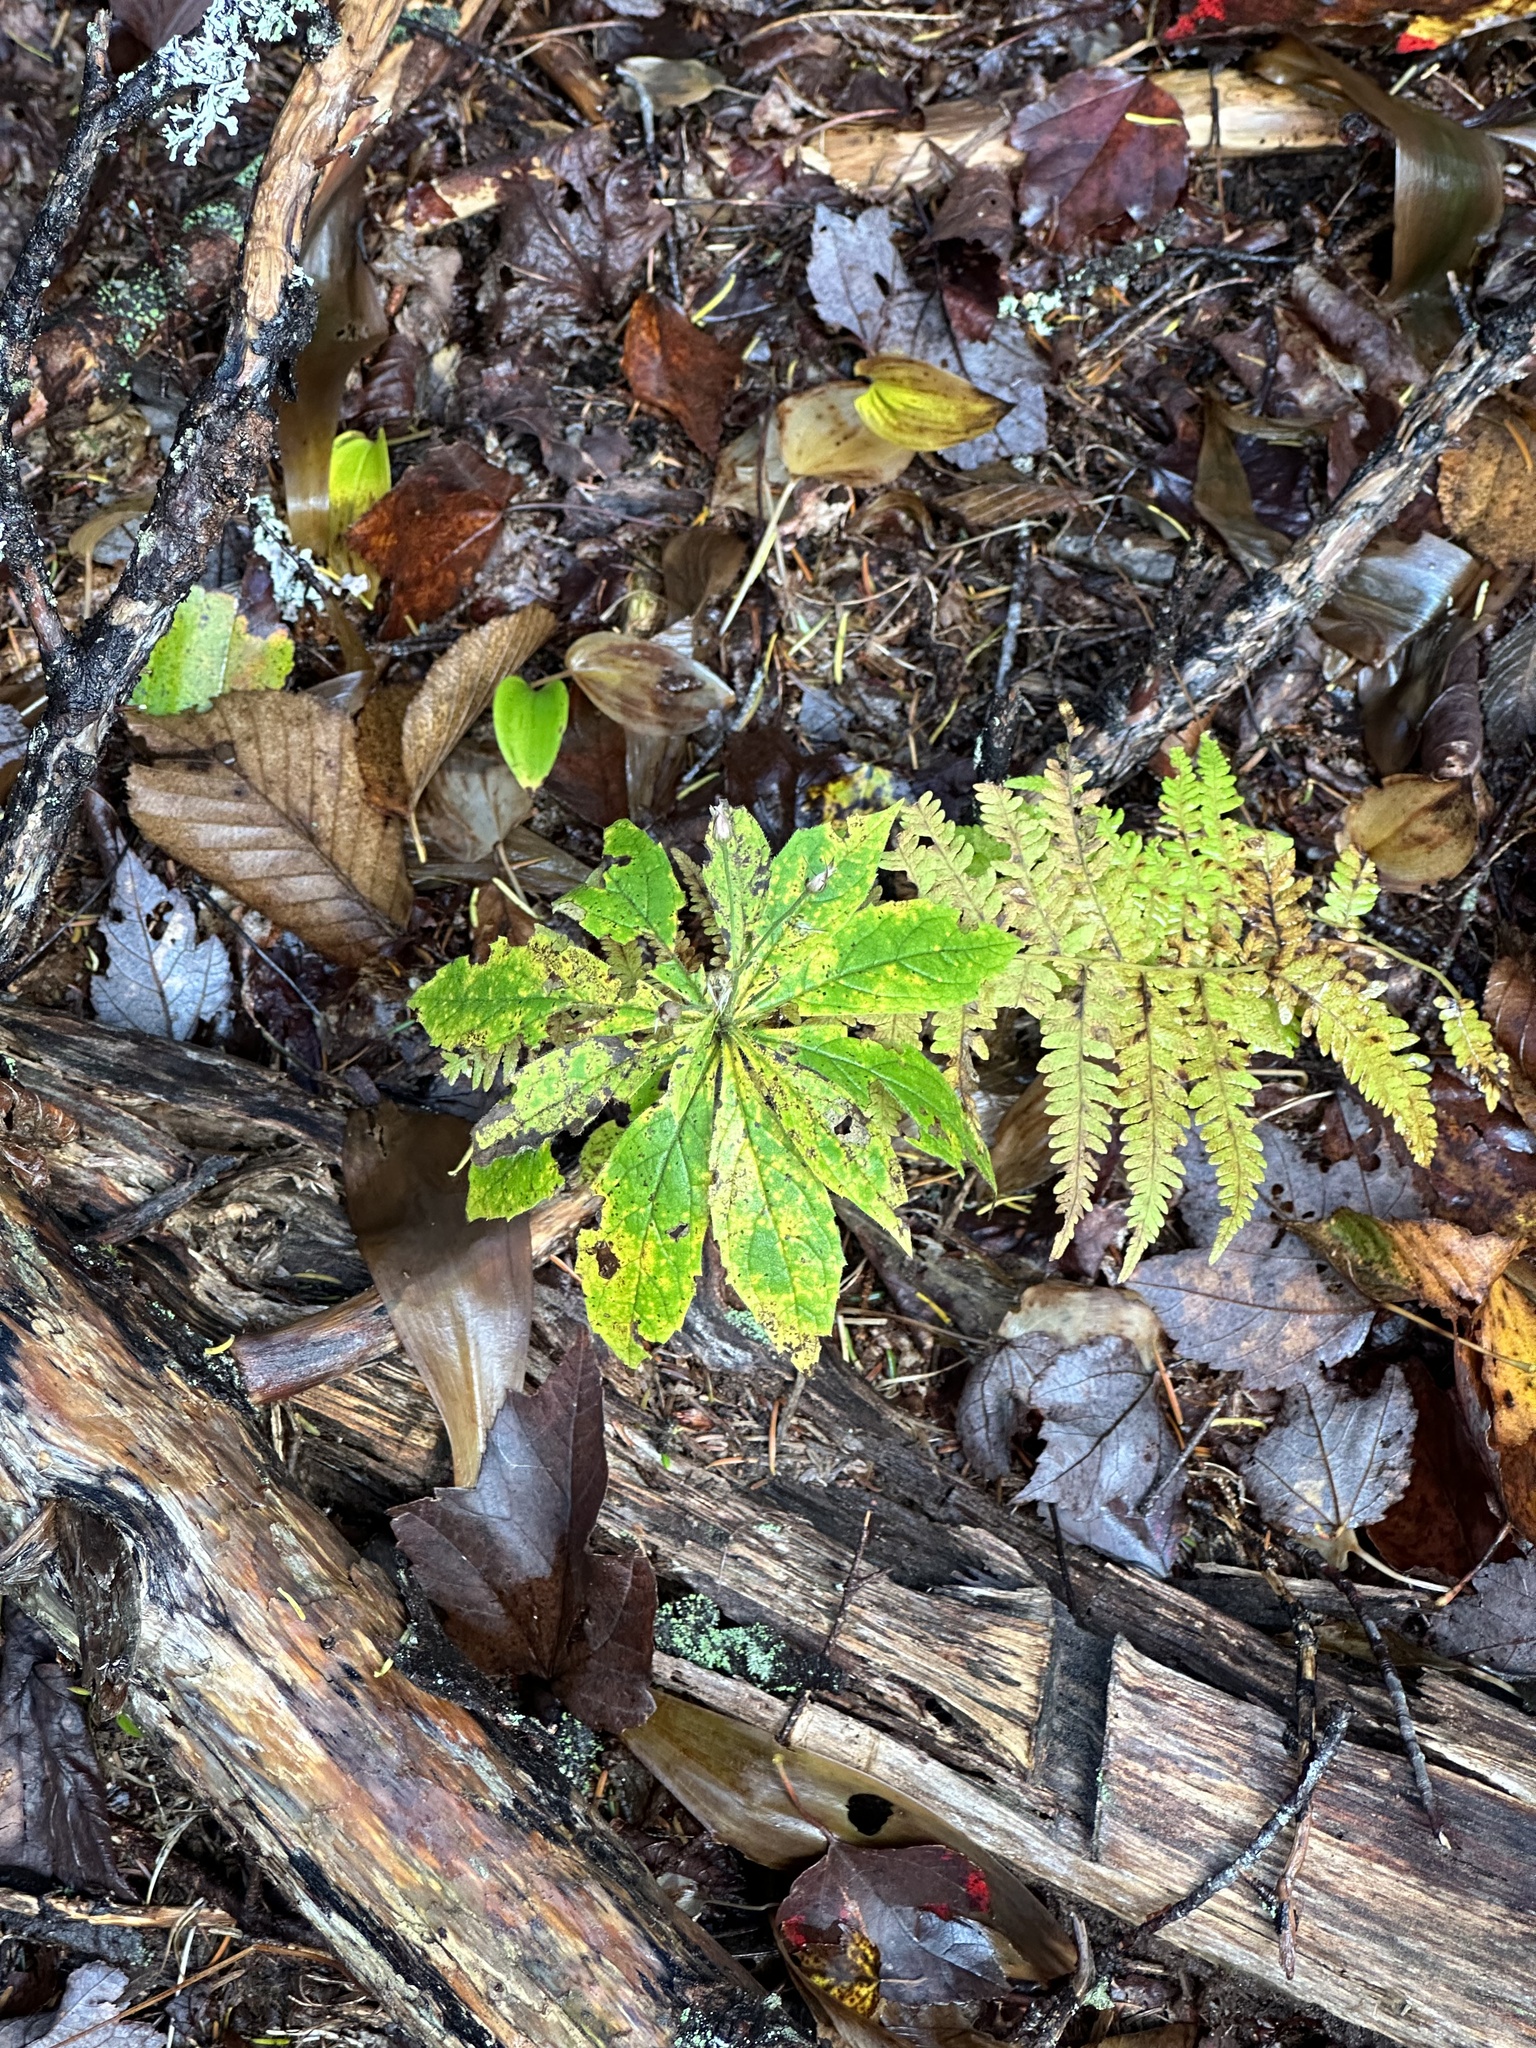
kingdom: Plantae
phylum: Tracheophyta
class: Magnoliopsida
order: Ericales
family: Primulaceae
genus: Lysimachia
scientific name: Lysimachia borealis
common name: American starflower
